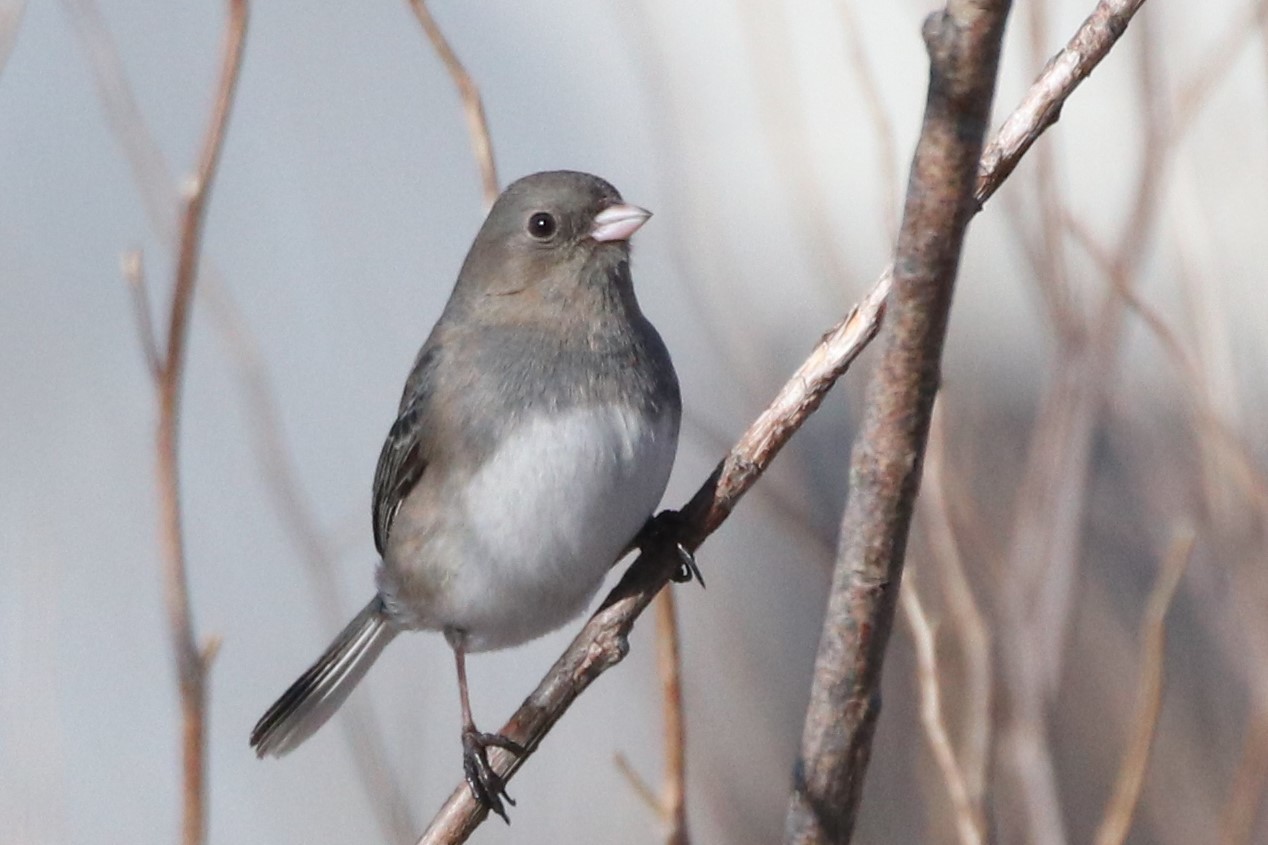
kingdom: Animalia
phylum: Chordata
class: Aves
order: Passeriformes
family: Passerellidae
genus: Junco
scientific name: Junco hyemalis
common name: Dark-eyed junco
